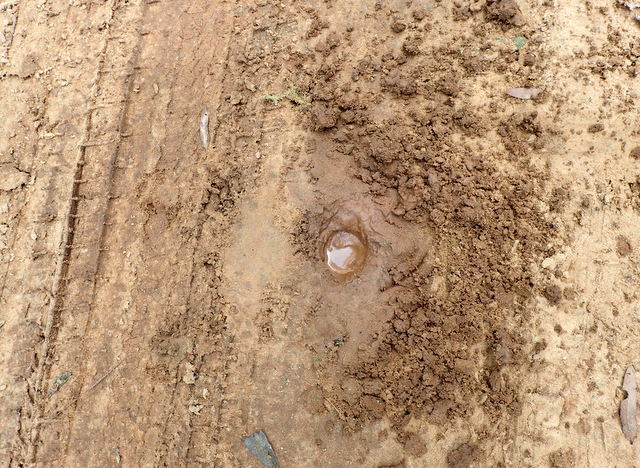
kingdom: Animalia
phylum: Chordata
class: Testudines
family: Emydidae
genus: Trachemys
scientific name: Trachemys scripta
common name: Slider
